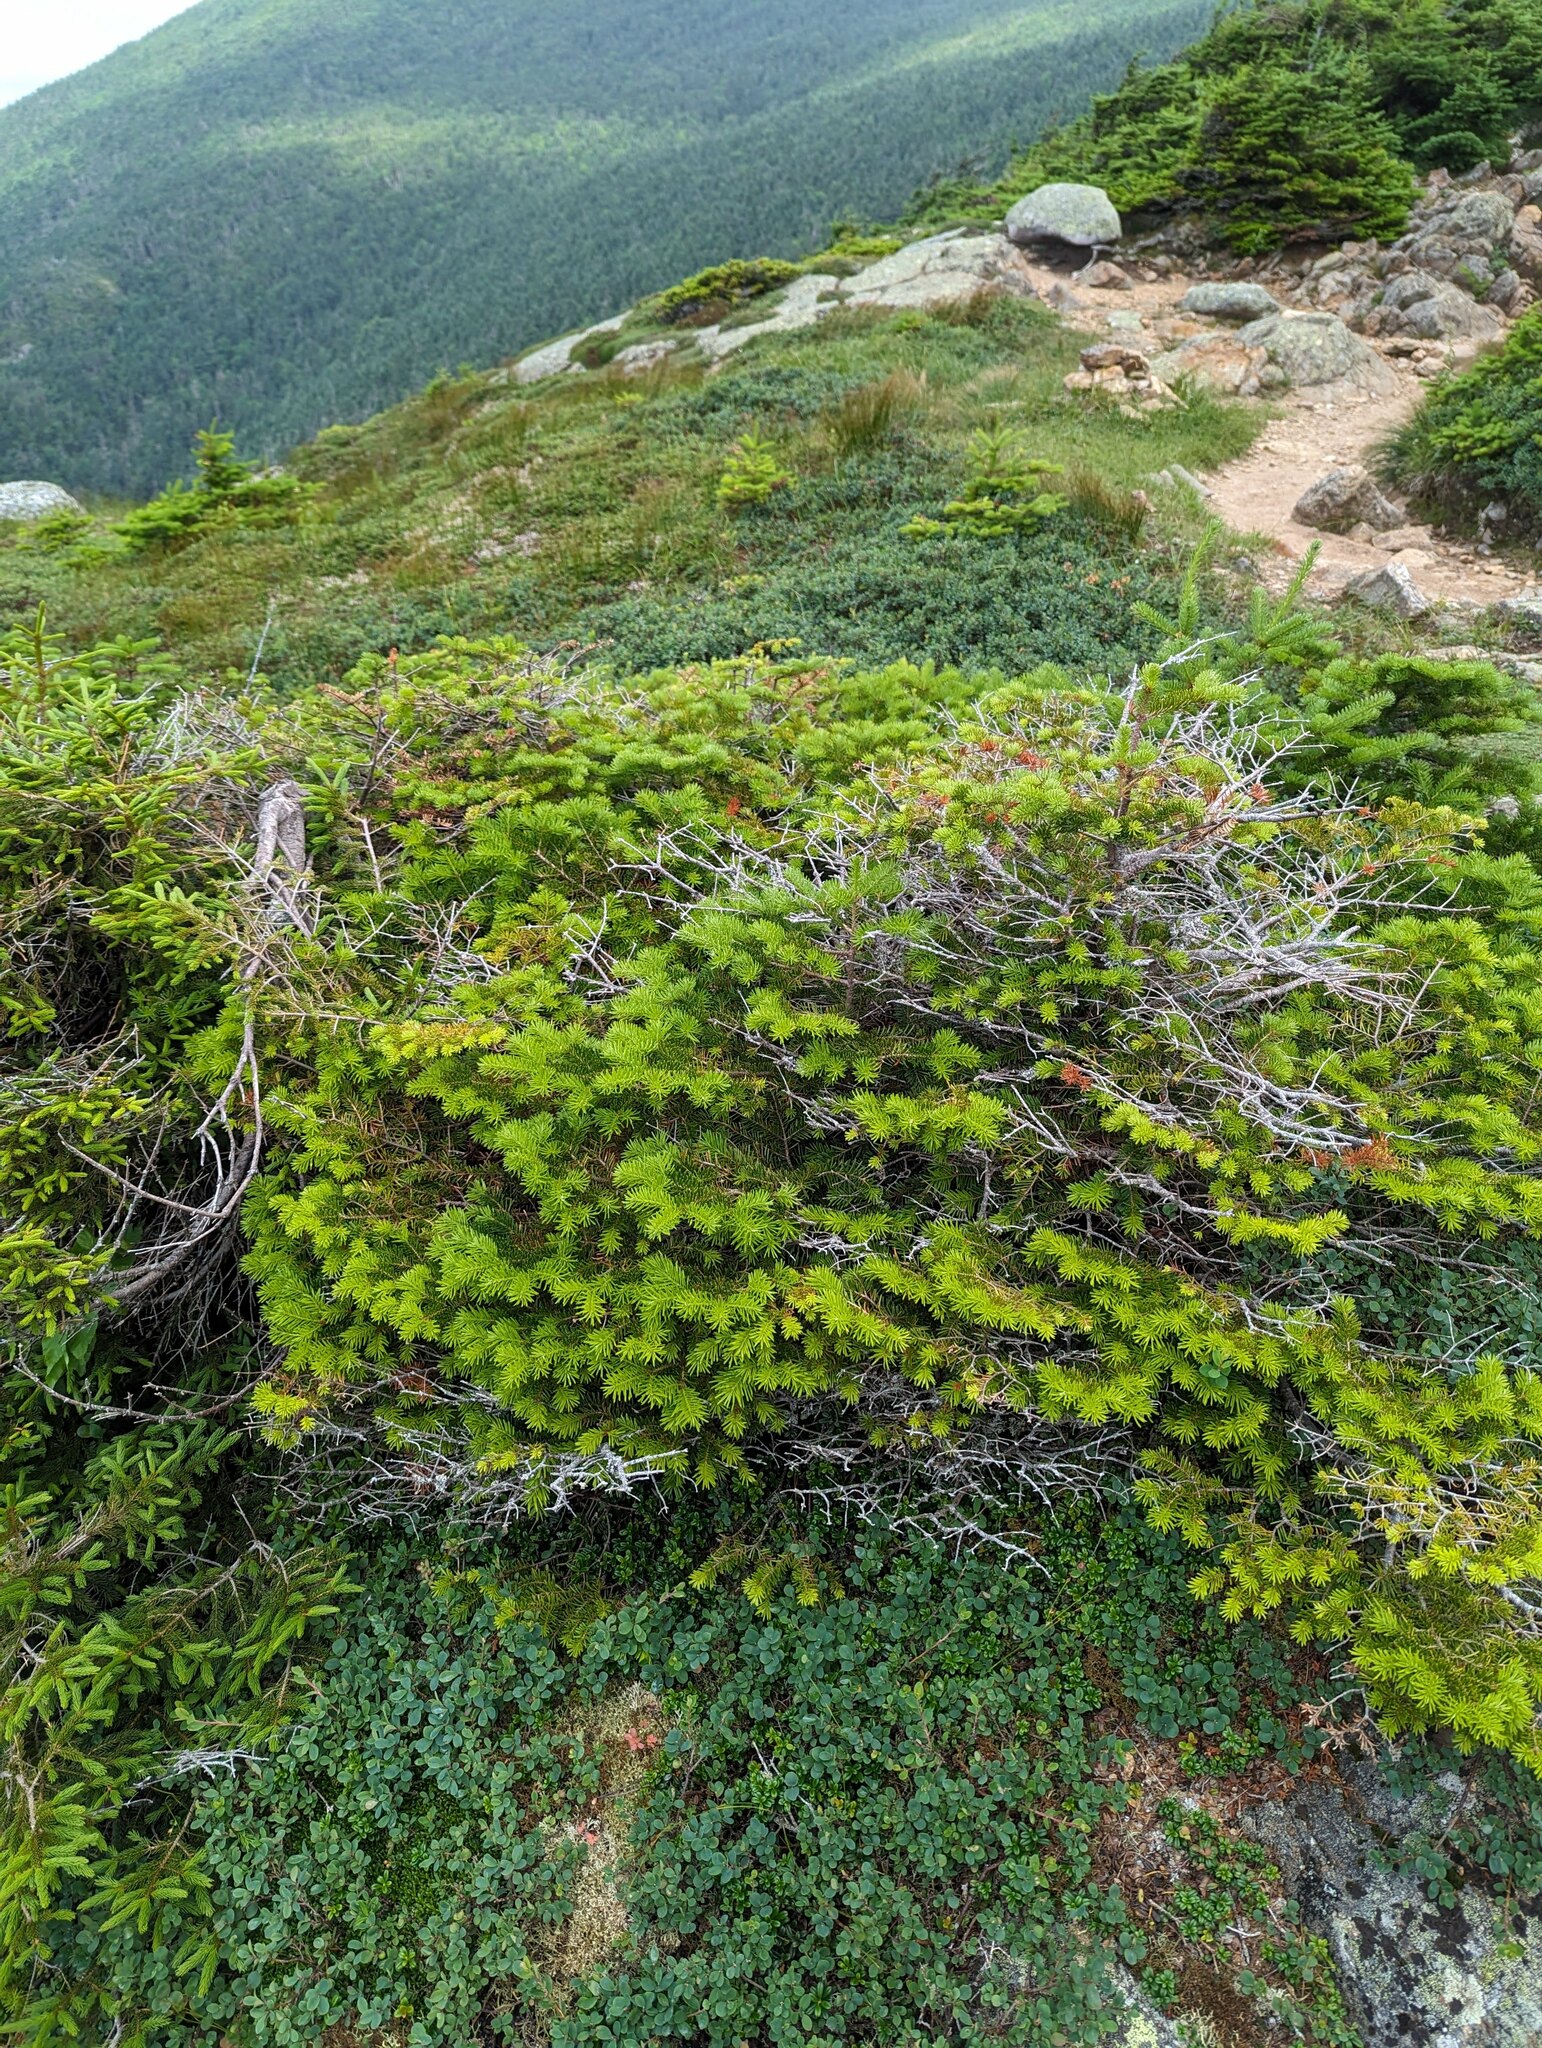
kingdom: Plantae
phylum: Tracheophyta
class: Pinopsida
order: Pinales
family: Pinaceae
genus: Abies
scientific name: Abies balsamea
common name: Balsam fir
